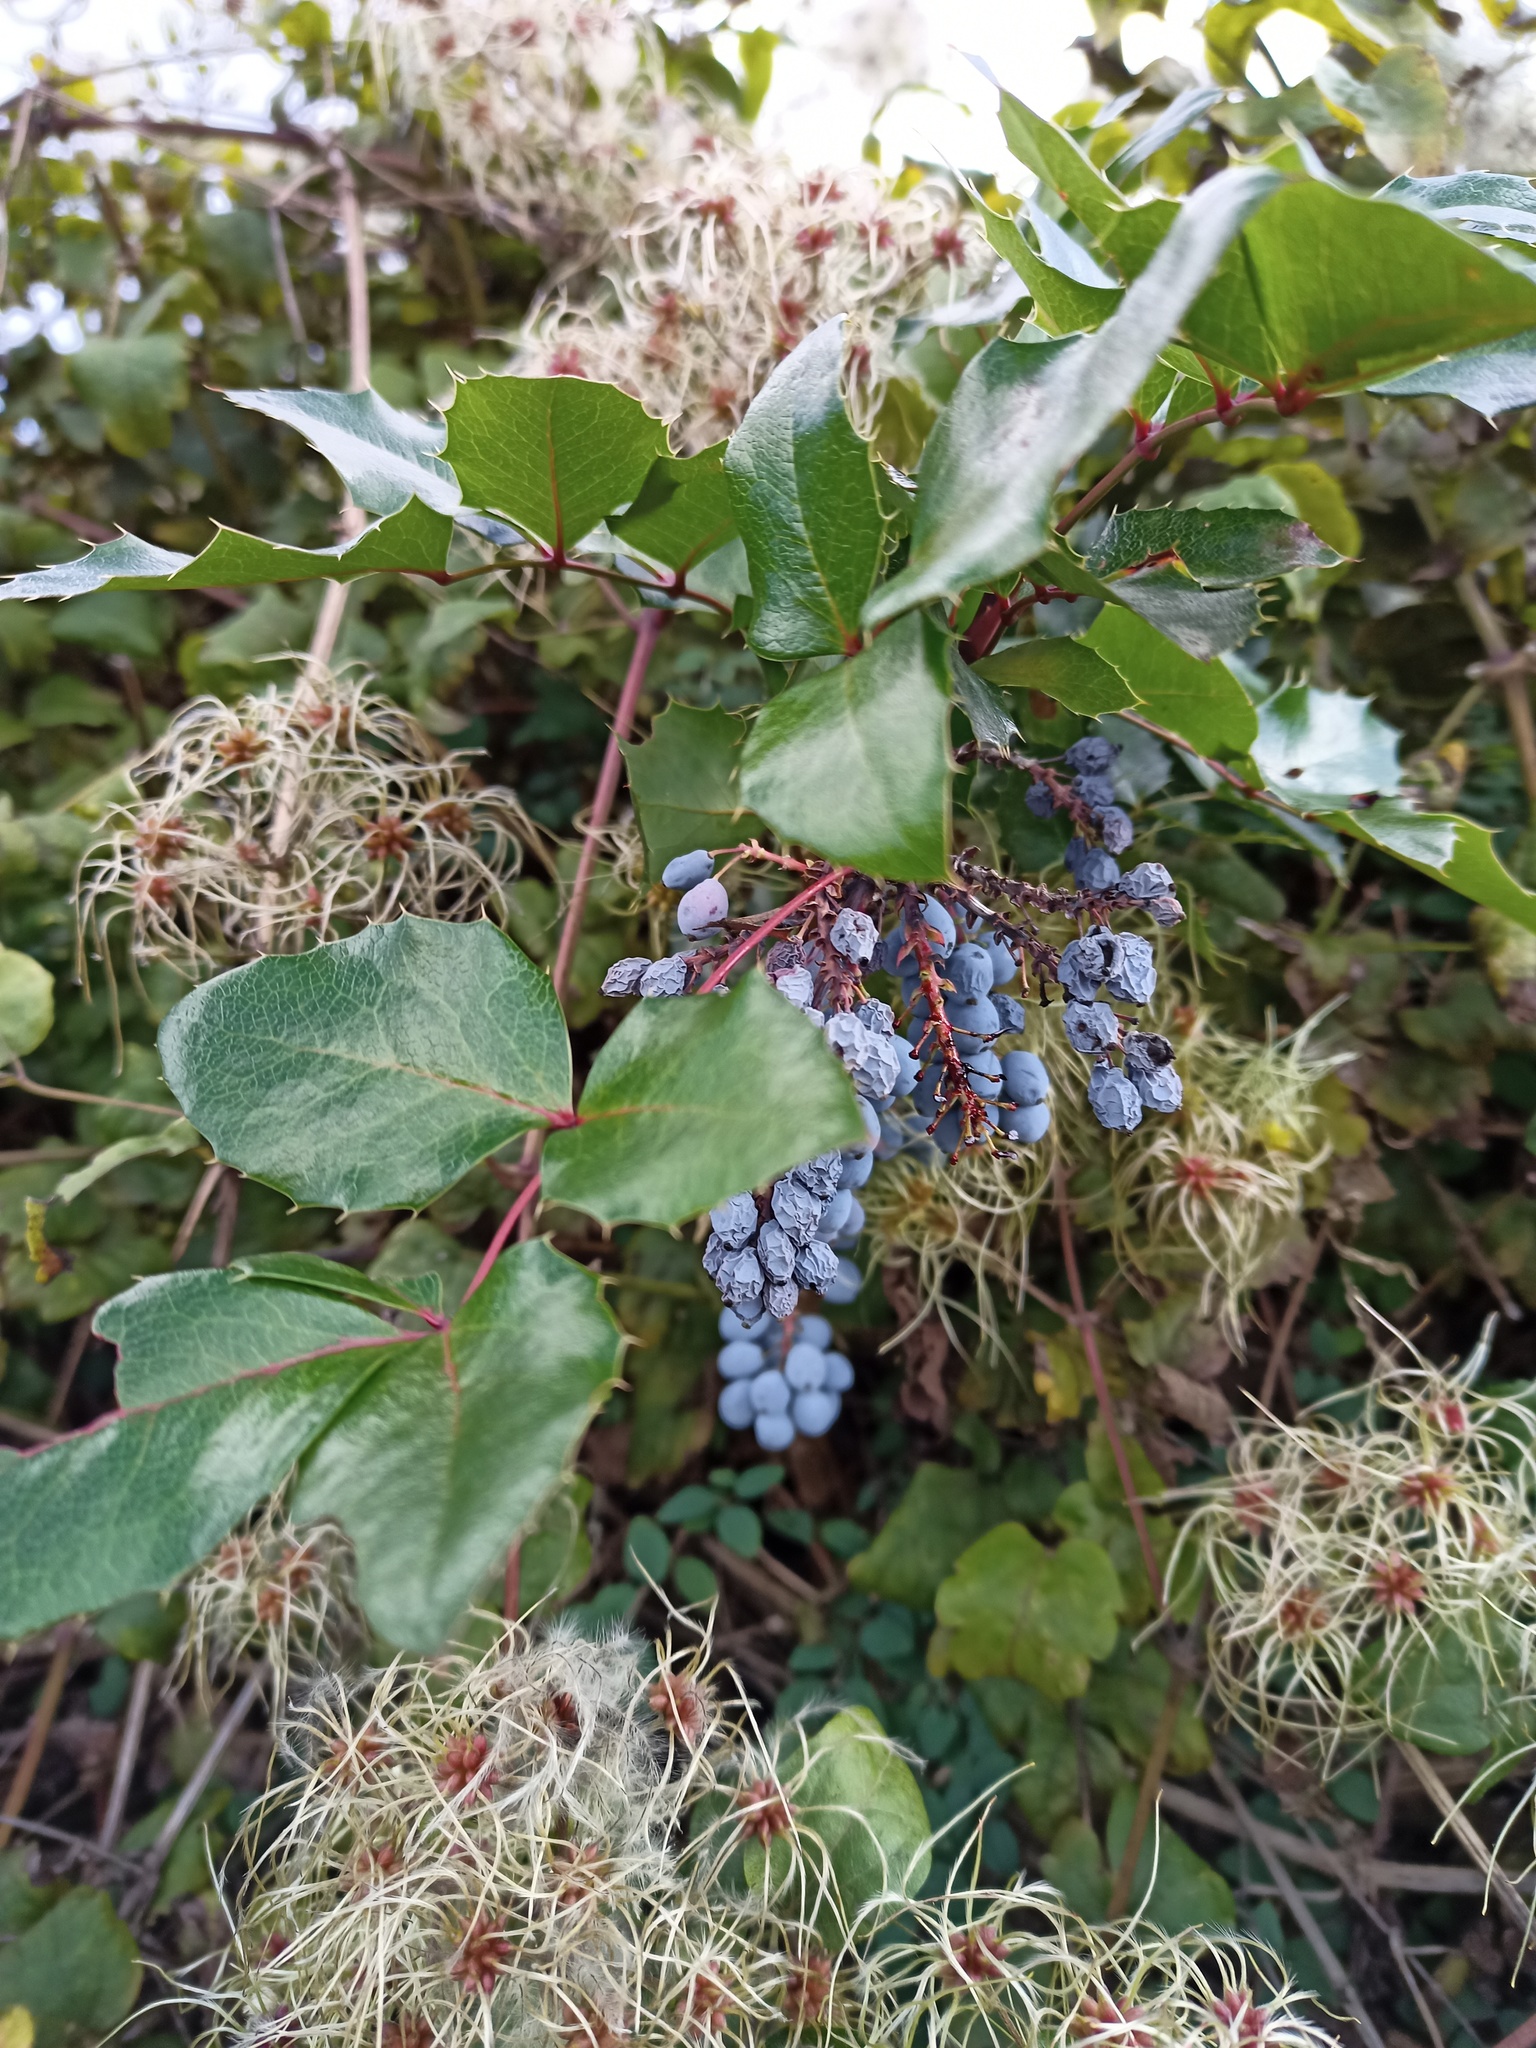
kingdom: Plantae
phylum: Tracheophyta
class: Magnoliopsida
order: Ranunculales
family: Berberidaceae
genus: Mahonia
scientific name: Mahonia aquifolium
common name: Oregon-grape
